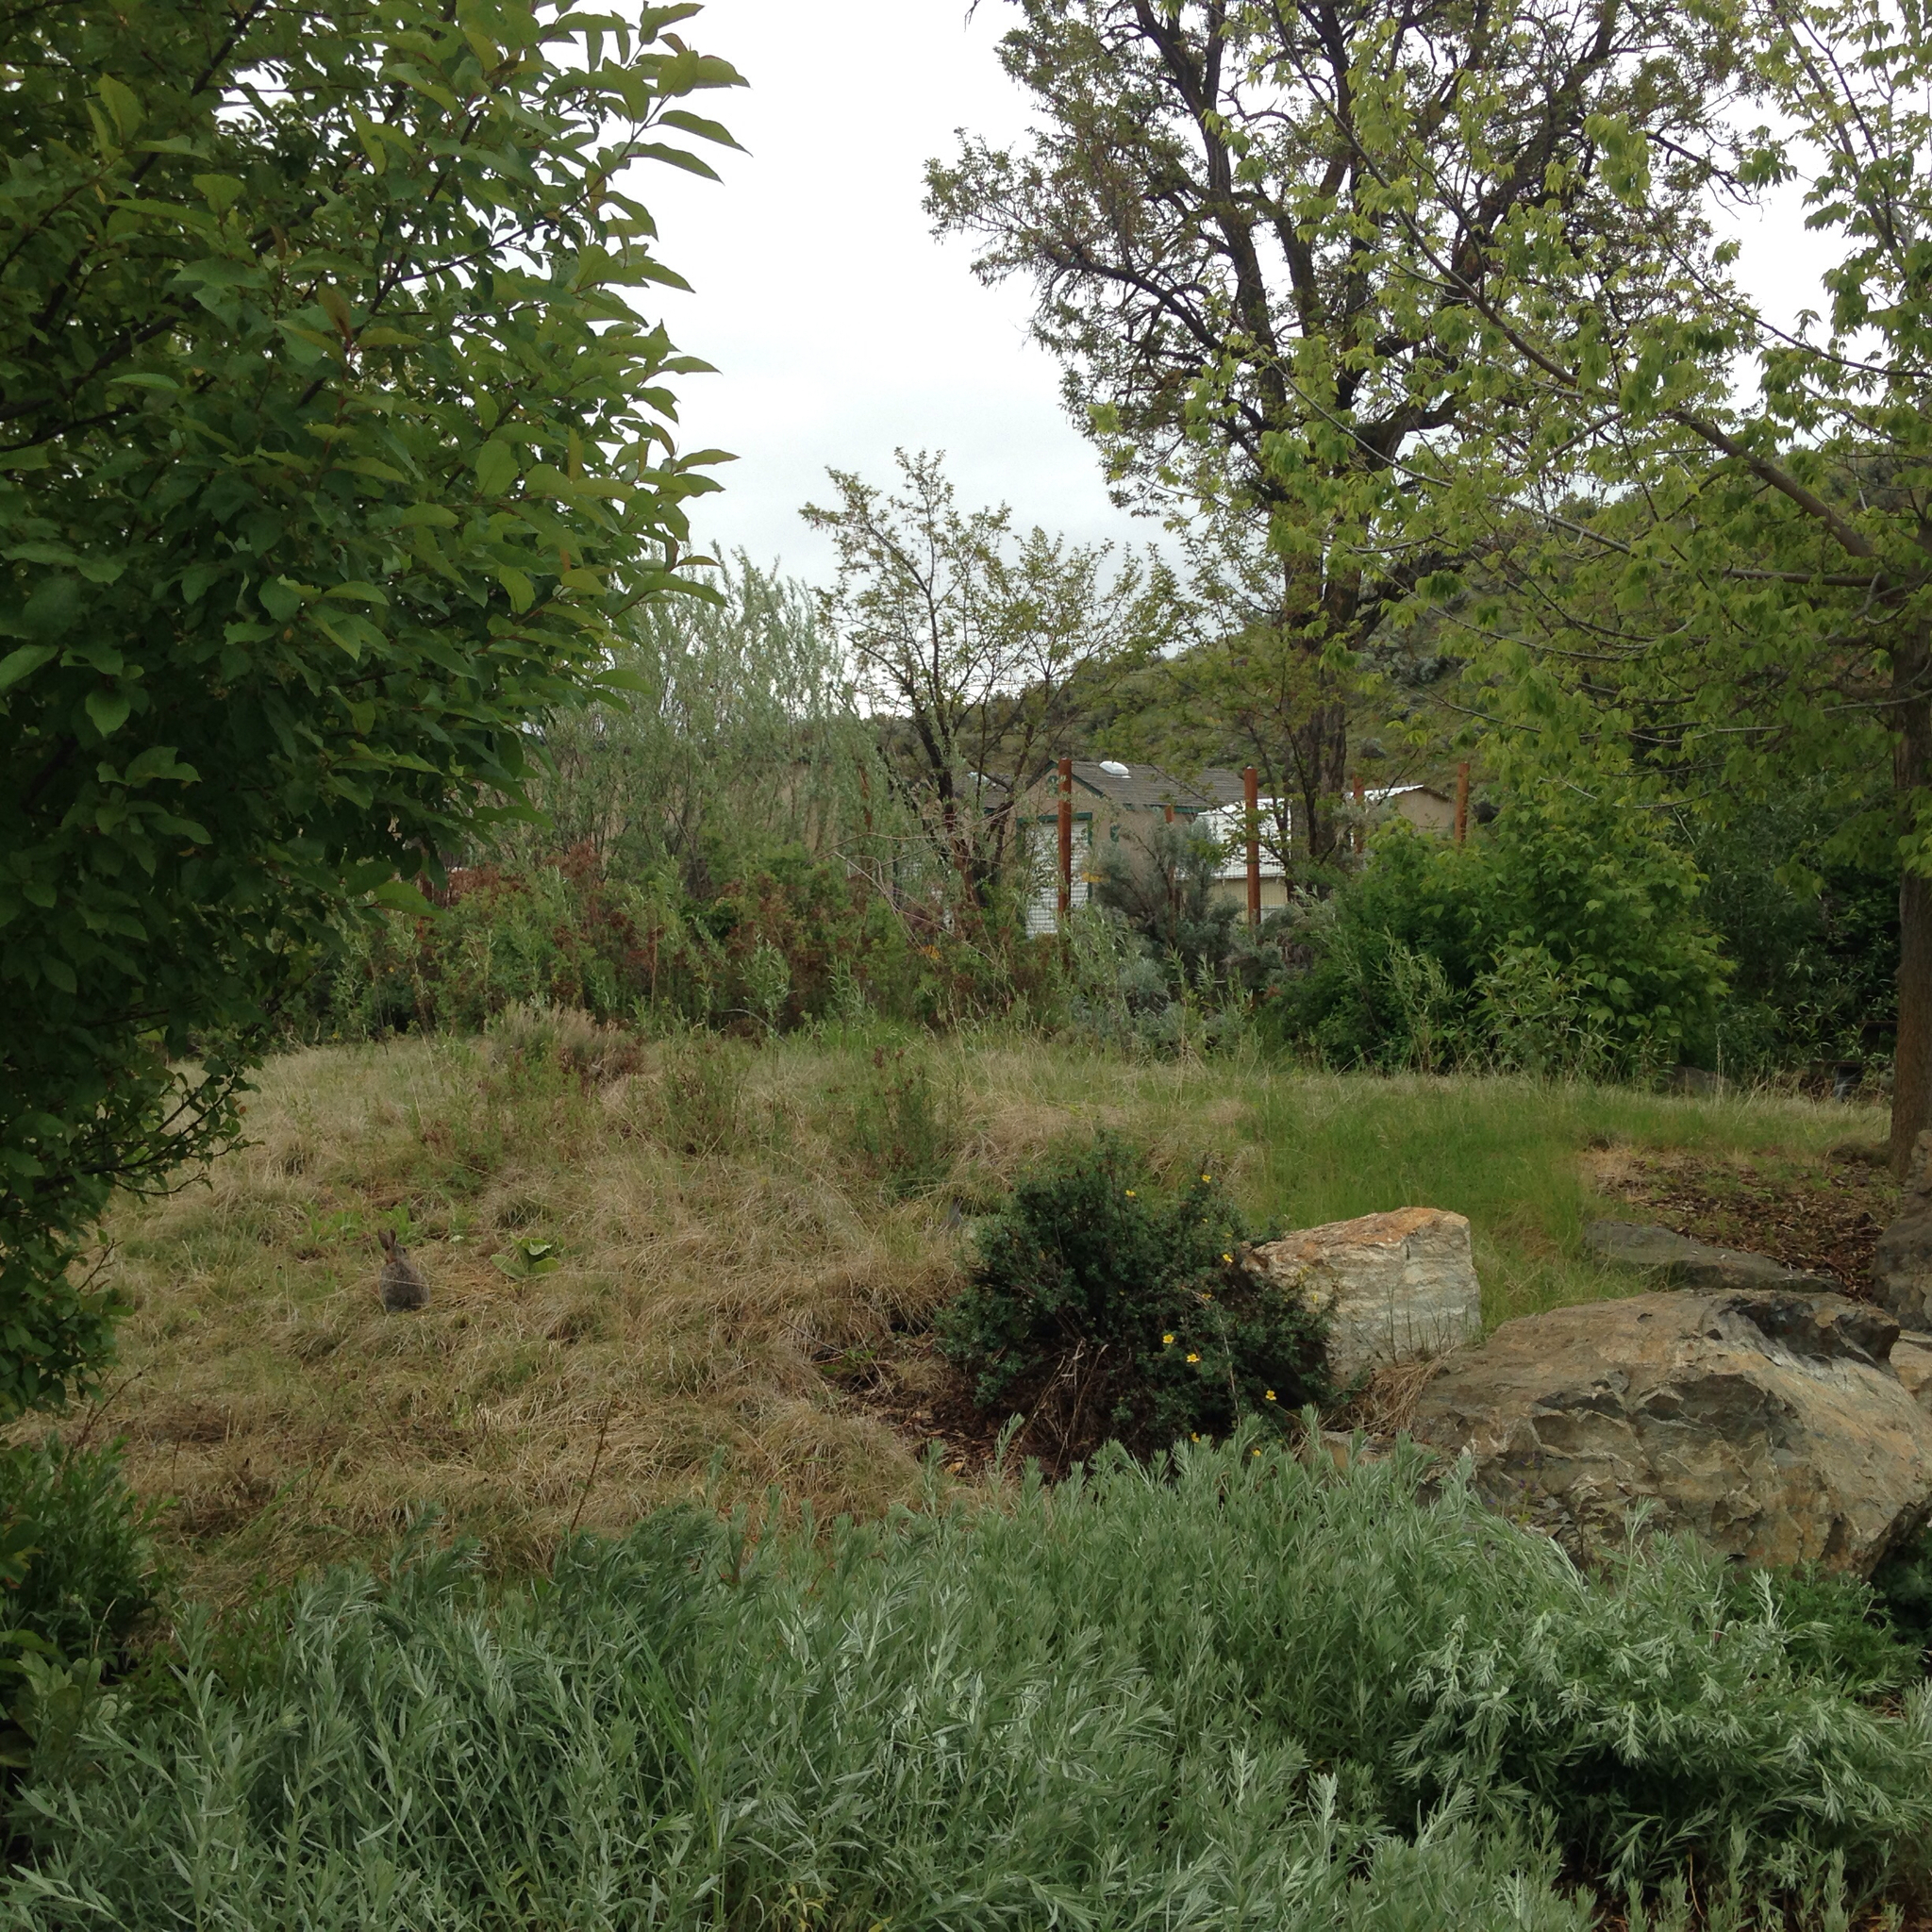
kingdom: Animalia
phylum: Chordata
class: Mammalia
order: Lagomorpha
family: Leporidae
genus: Sylvilagus
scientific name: Sylvilagus nuttallii
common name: Mountain cottontail
